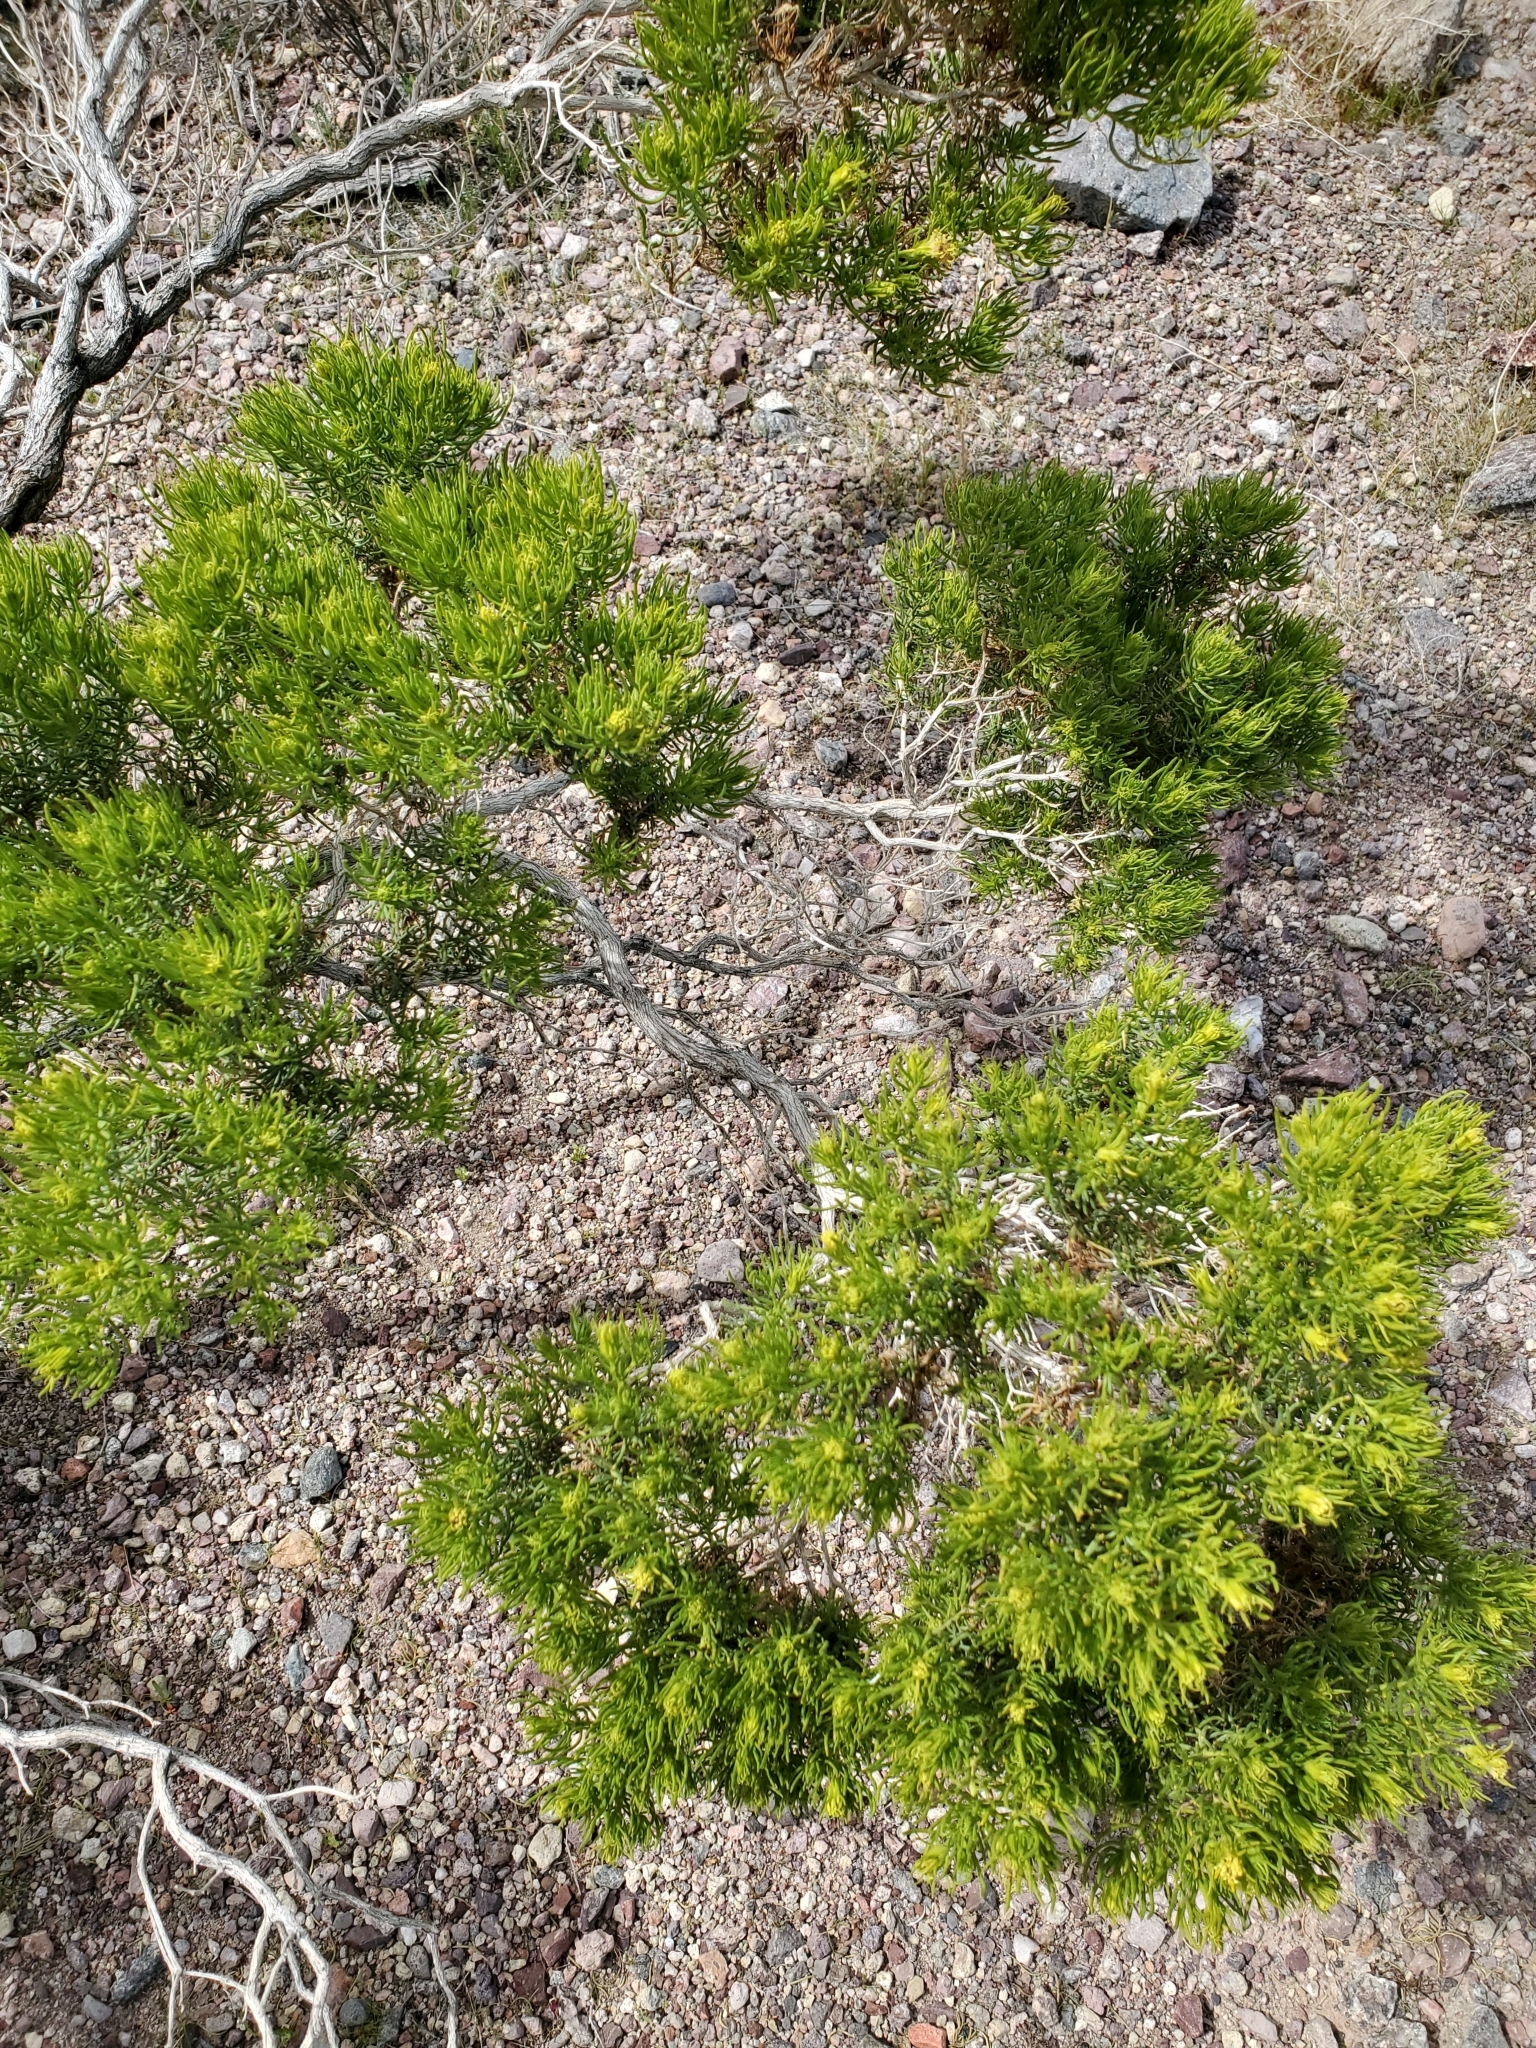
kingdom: Plantae
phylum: Tracheophyta
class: Magnoliopsida
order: Asterales
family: Asteraceae
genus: Peucephyllum
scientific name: Peucephyllum schottii
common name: Pygmy-cedar
